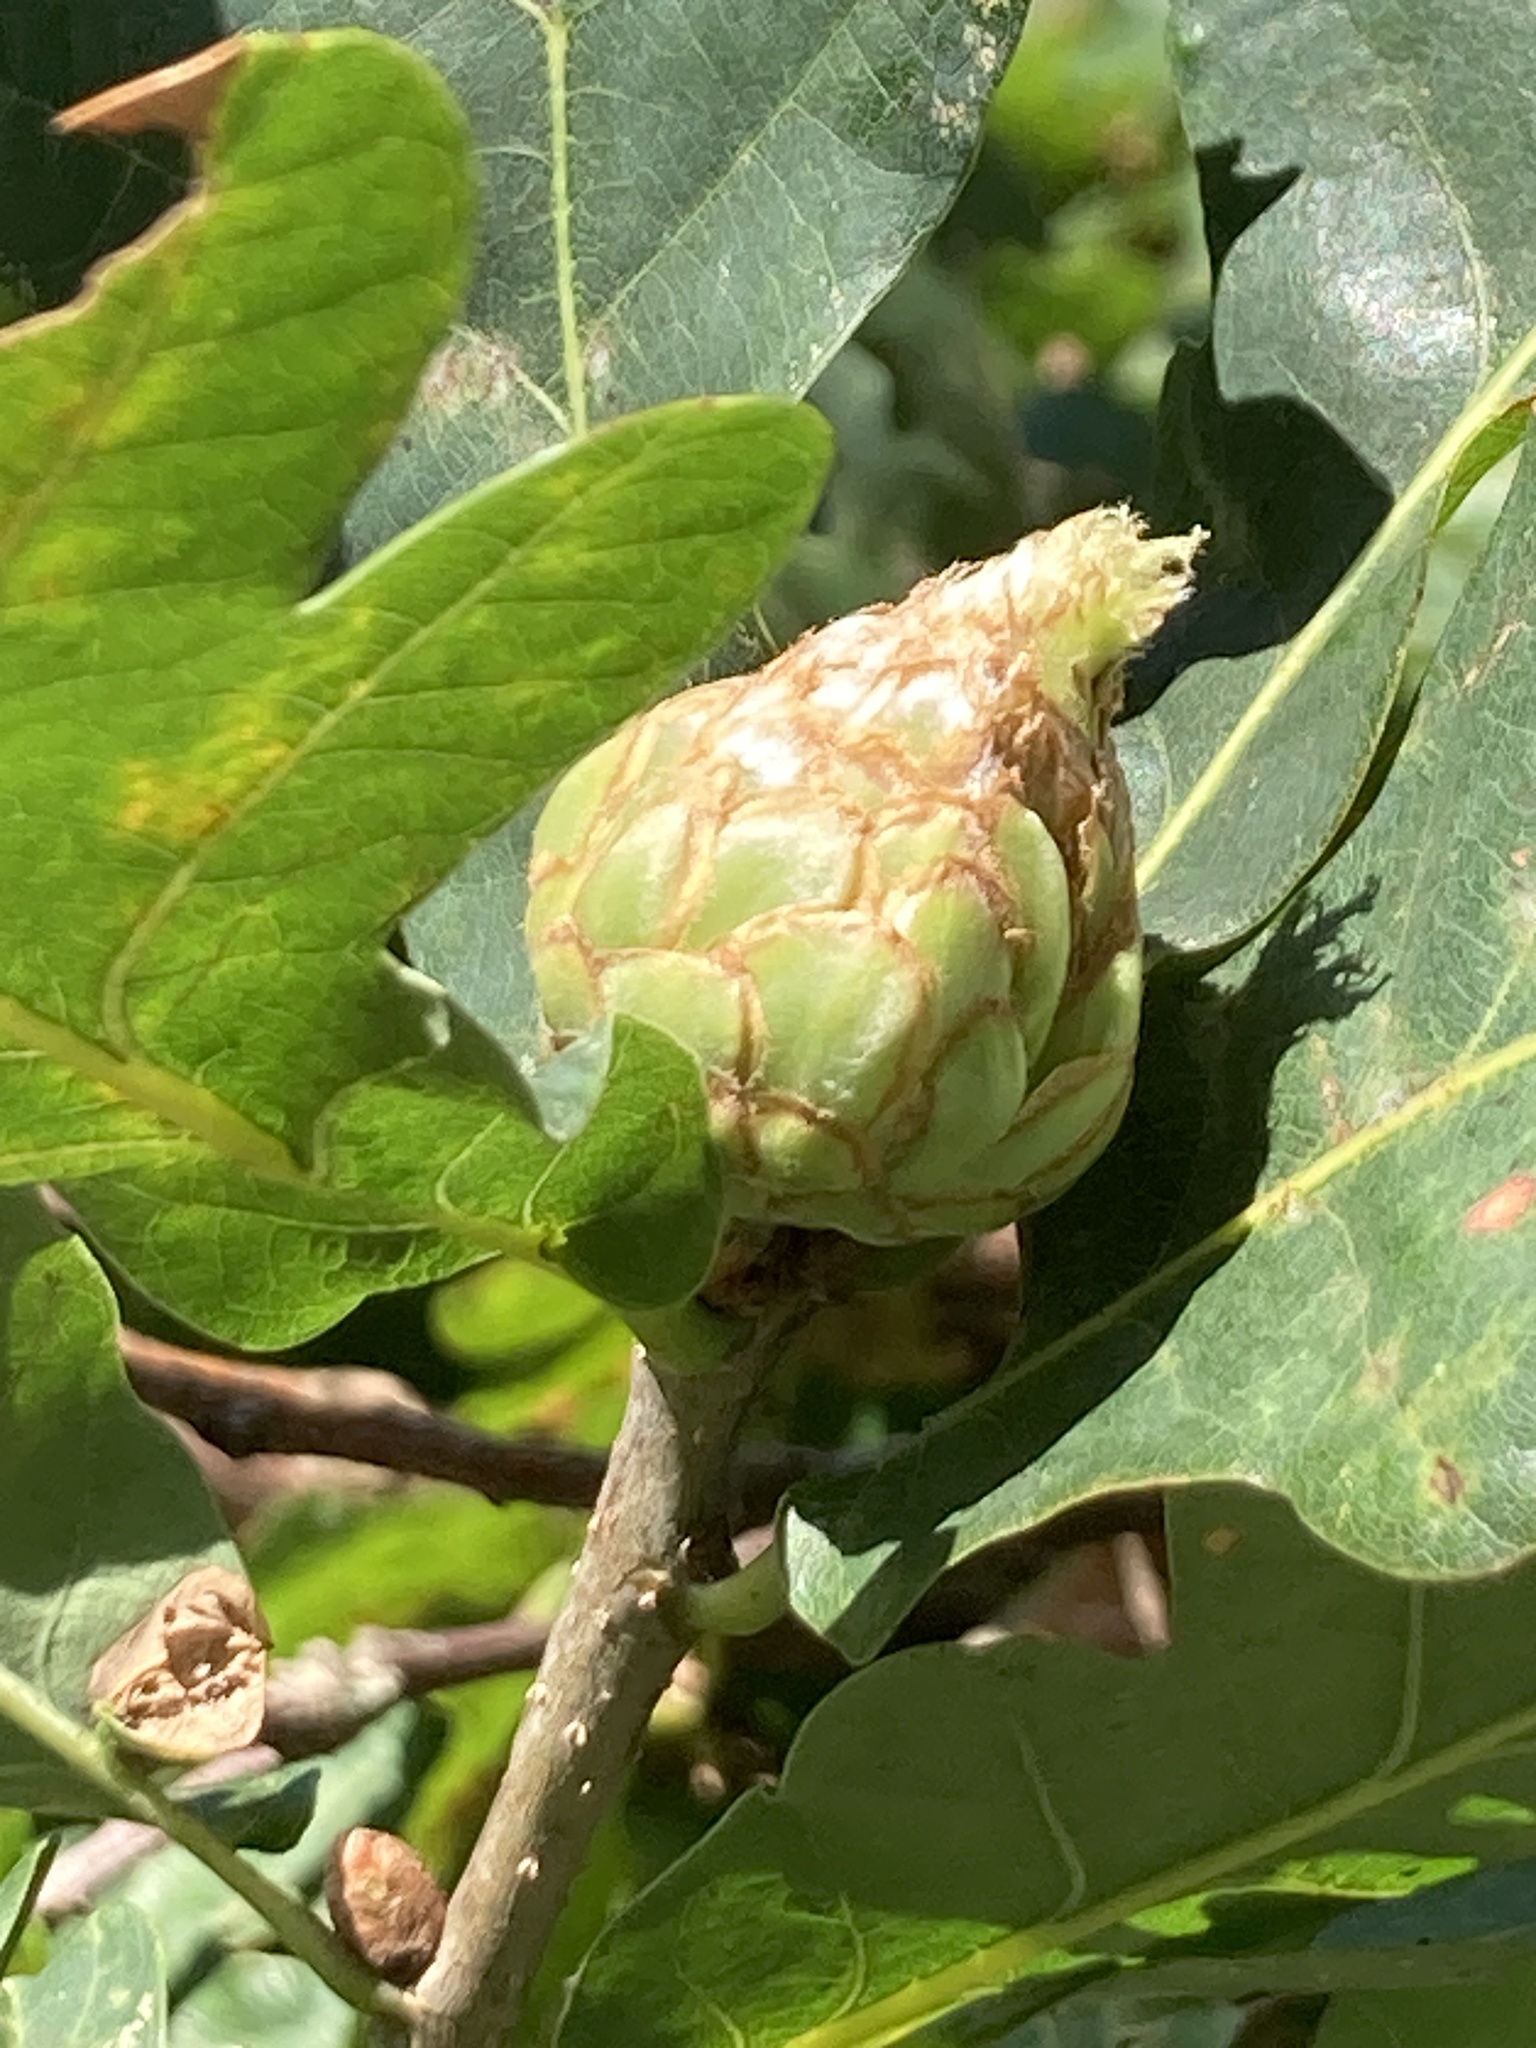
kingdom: Animalia
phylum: Arthropoda
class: Insecta
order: Hymenoptera
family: Cynipidae
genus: Andricus
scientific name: Andricus foecundatrix
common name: Artichoke gall
